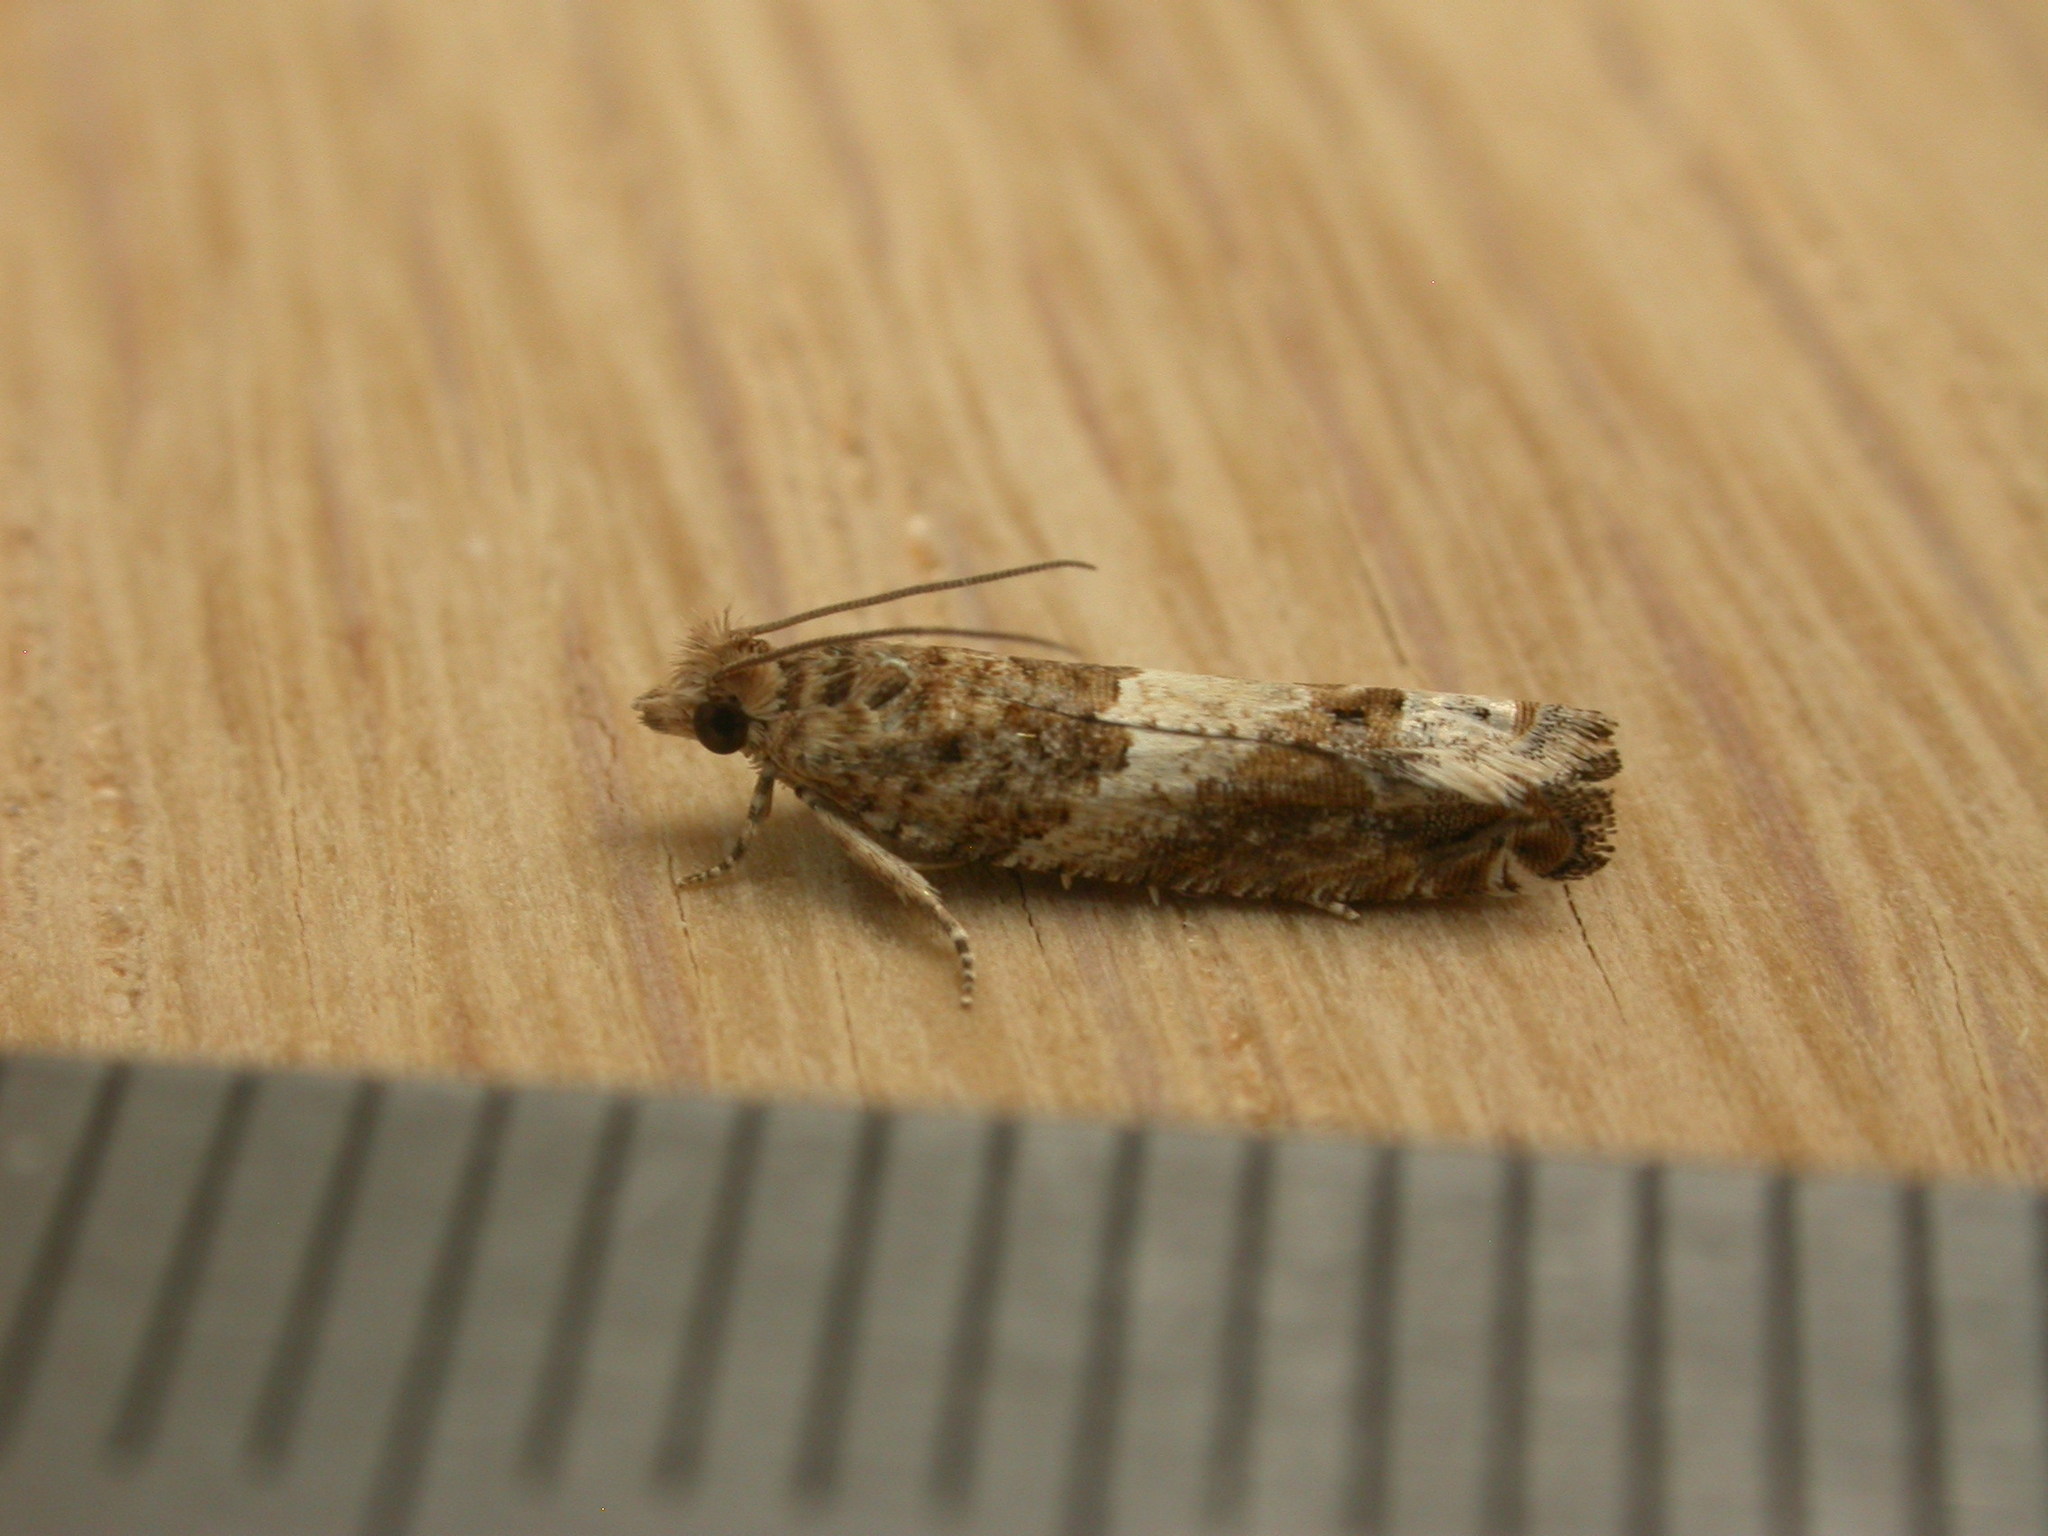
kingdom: Animalia
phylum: Arthropoda
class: Insecta
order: Lepidoptera
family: Tortricidae
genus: Crocidosema
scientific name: Crocidosema plebejana
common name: Southern bell
